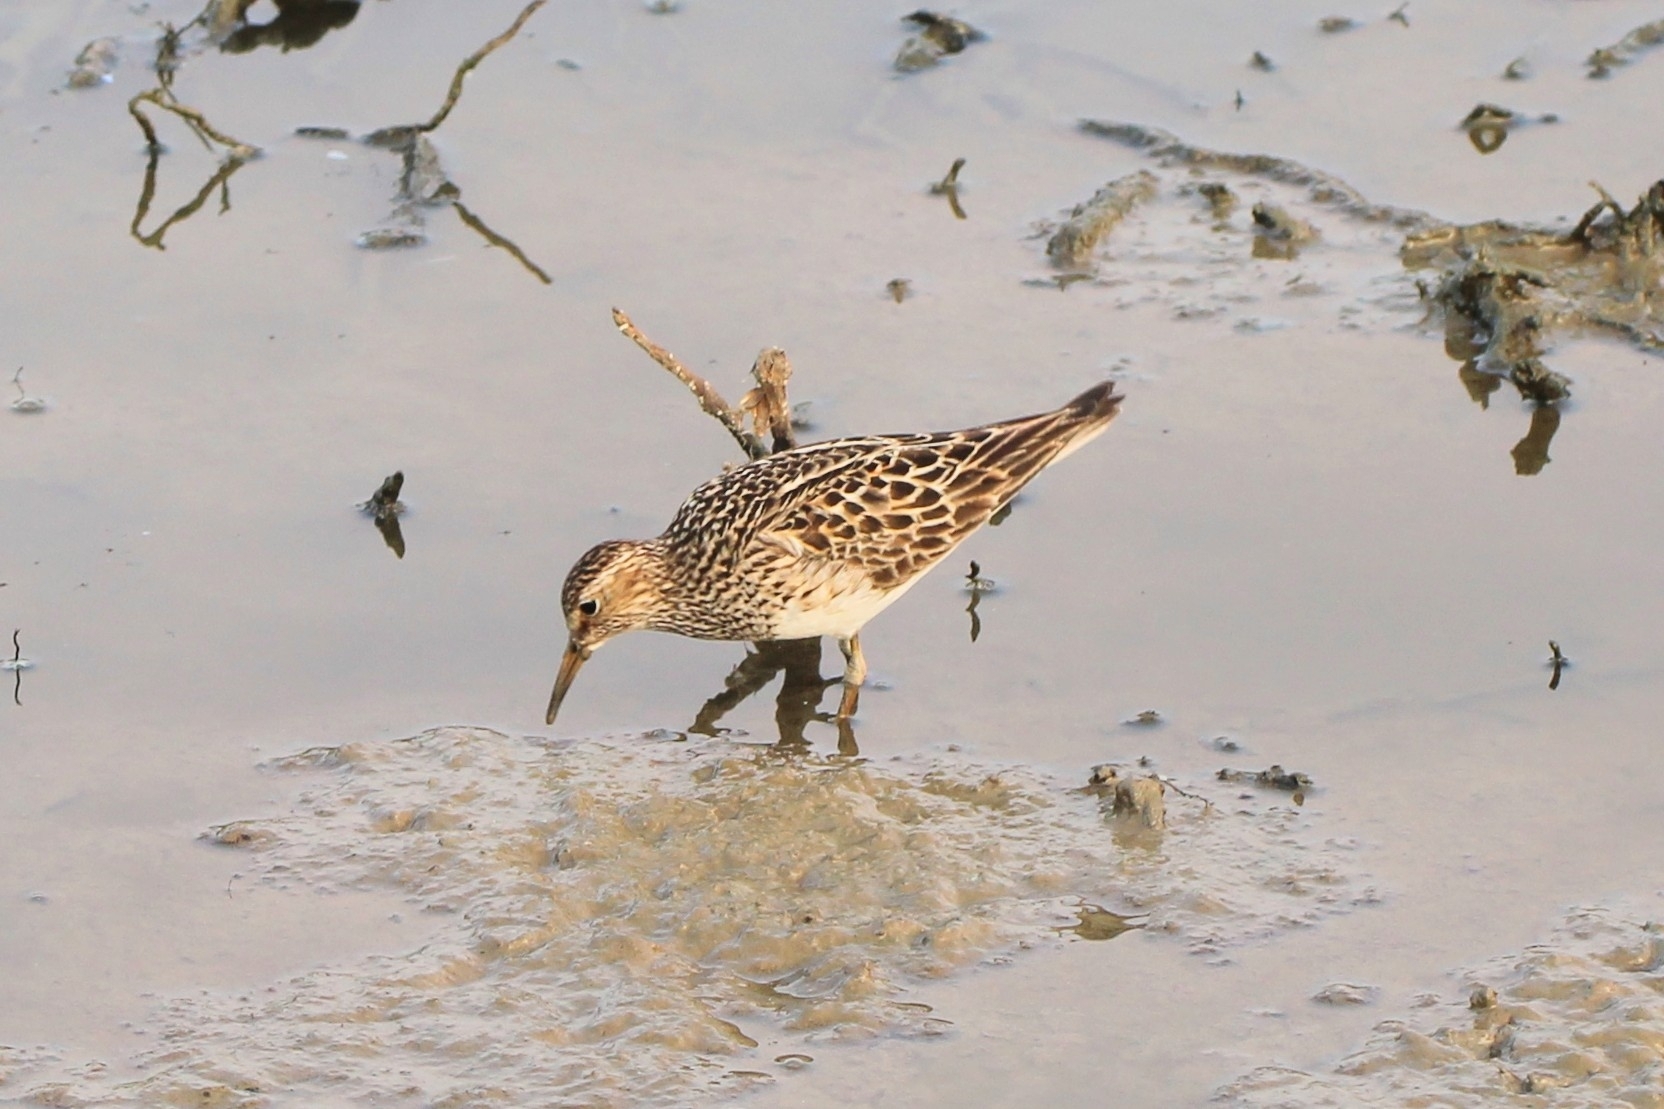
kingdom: Animalia
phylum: Chordata
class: Aves
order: Charadriiformes
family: Scolopacidae
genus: Calidris
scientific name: Calidris melanotos
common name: Pectoral sandpiper
